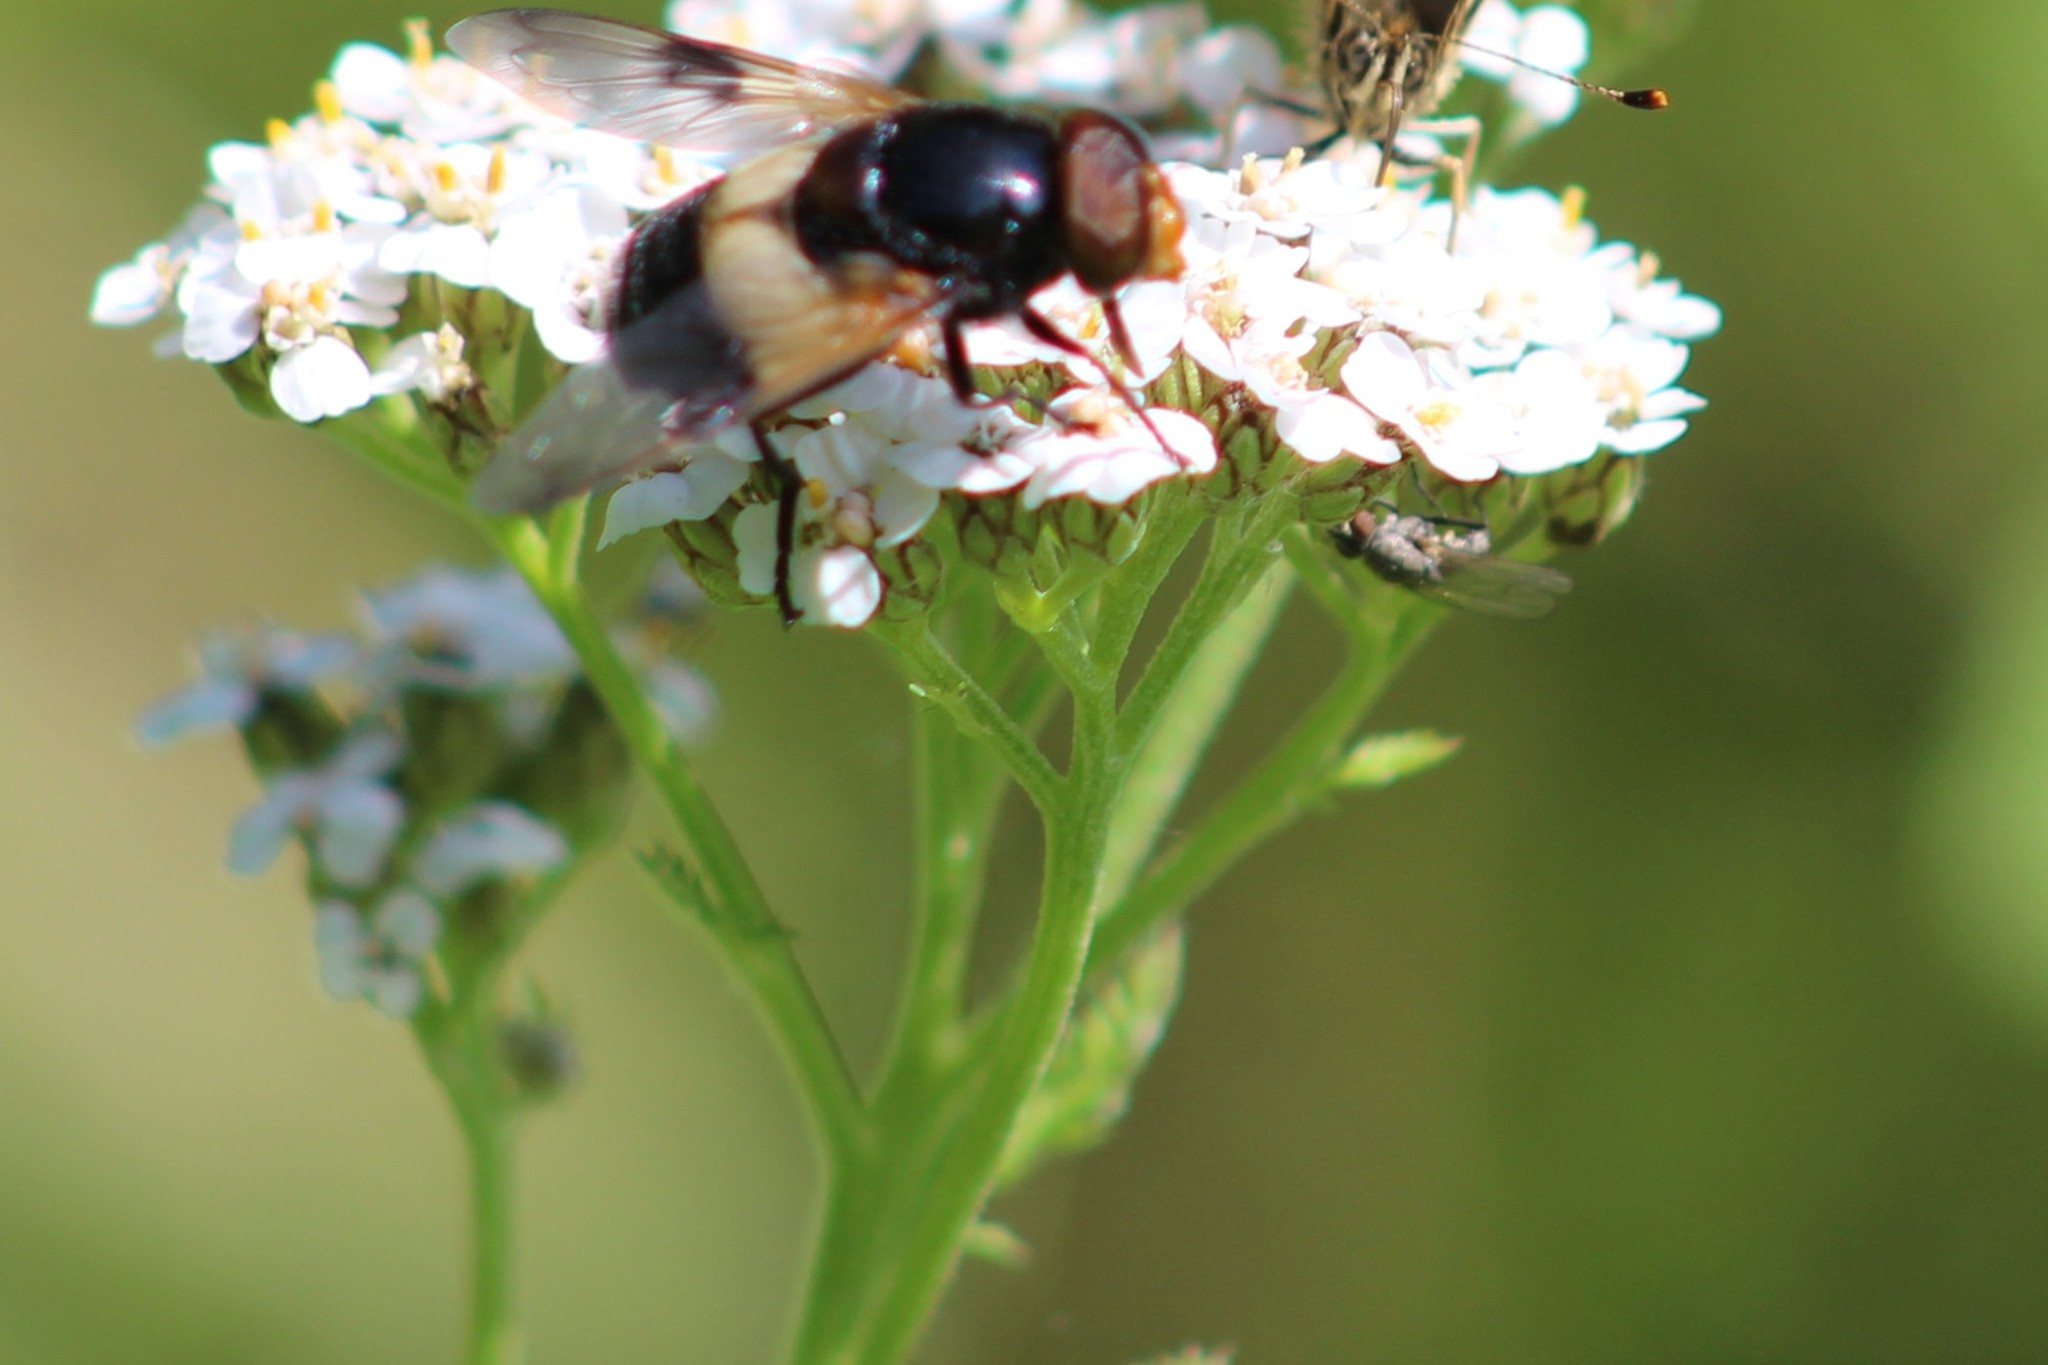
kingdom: Animalia
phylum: Arthropoda
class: Insecta
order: Diptera
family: Syrphidae
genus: Volucella
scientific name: Volucella pellucens
